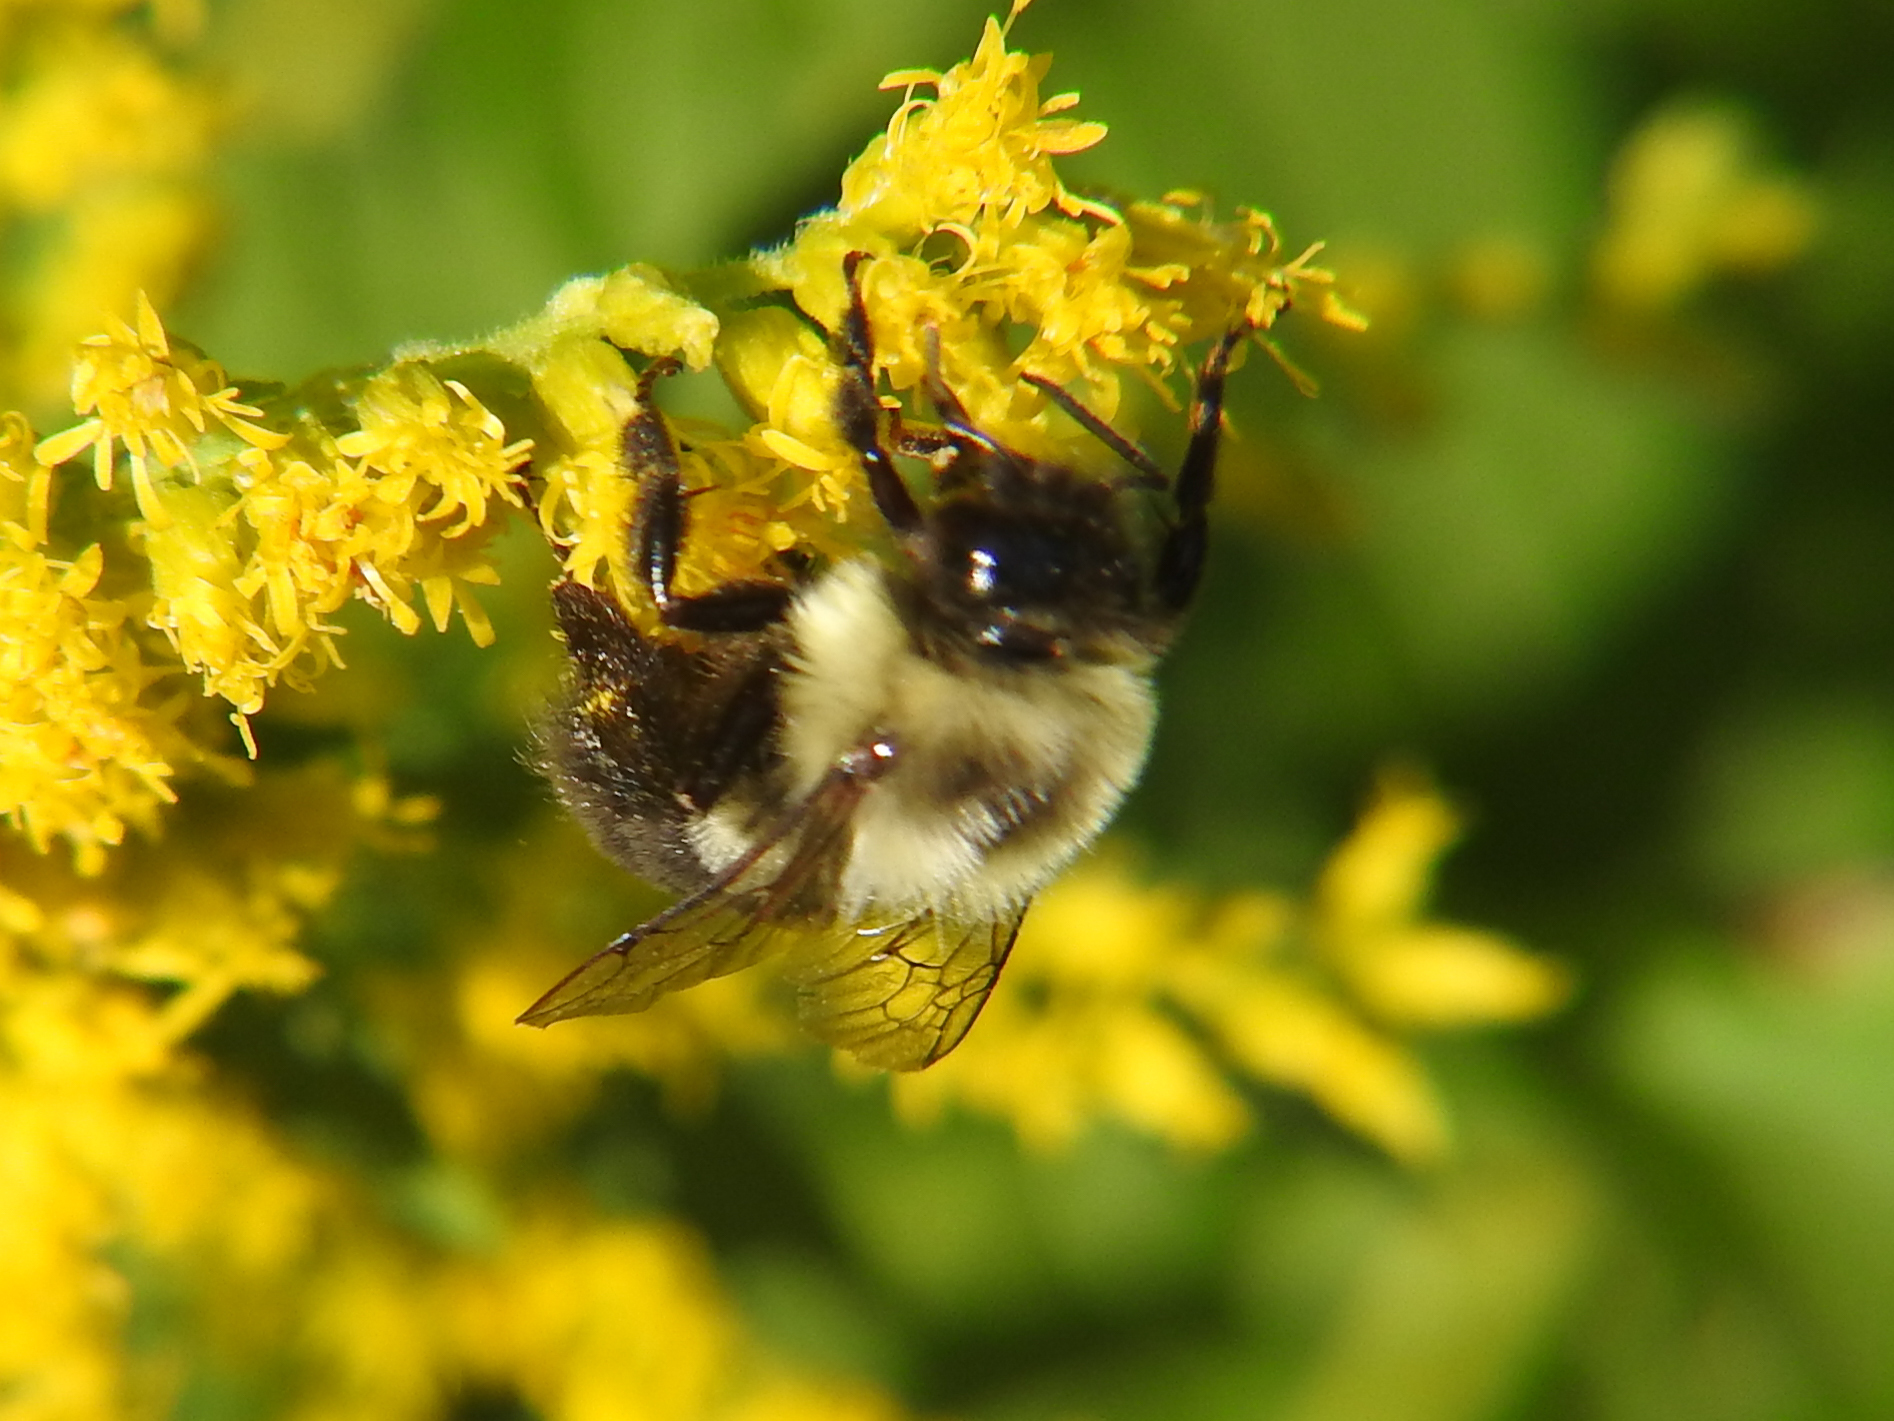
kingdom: Animalia
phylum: Arthropoda
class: Insecta
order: Hymenoptera
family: Apidae
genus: Bombus
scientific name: Bombus impatiens
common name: Common eastern bumble bee
